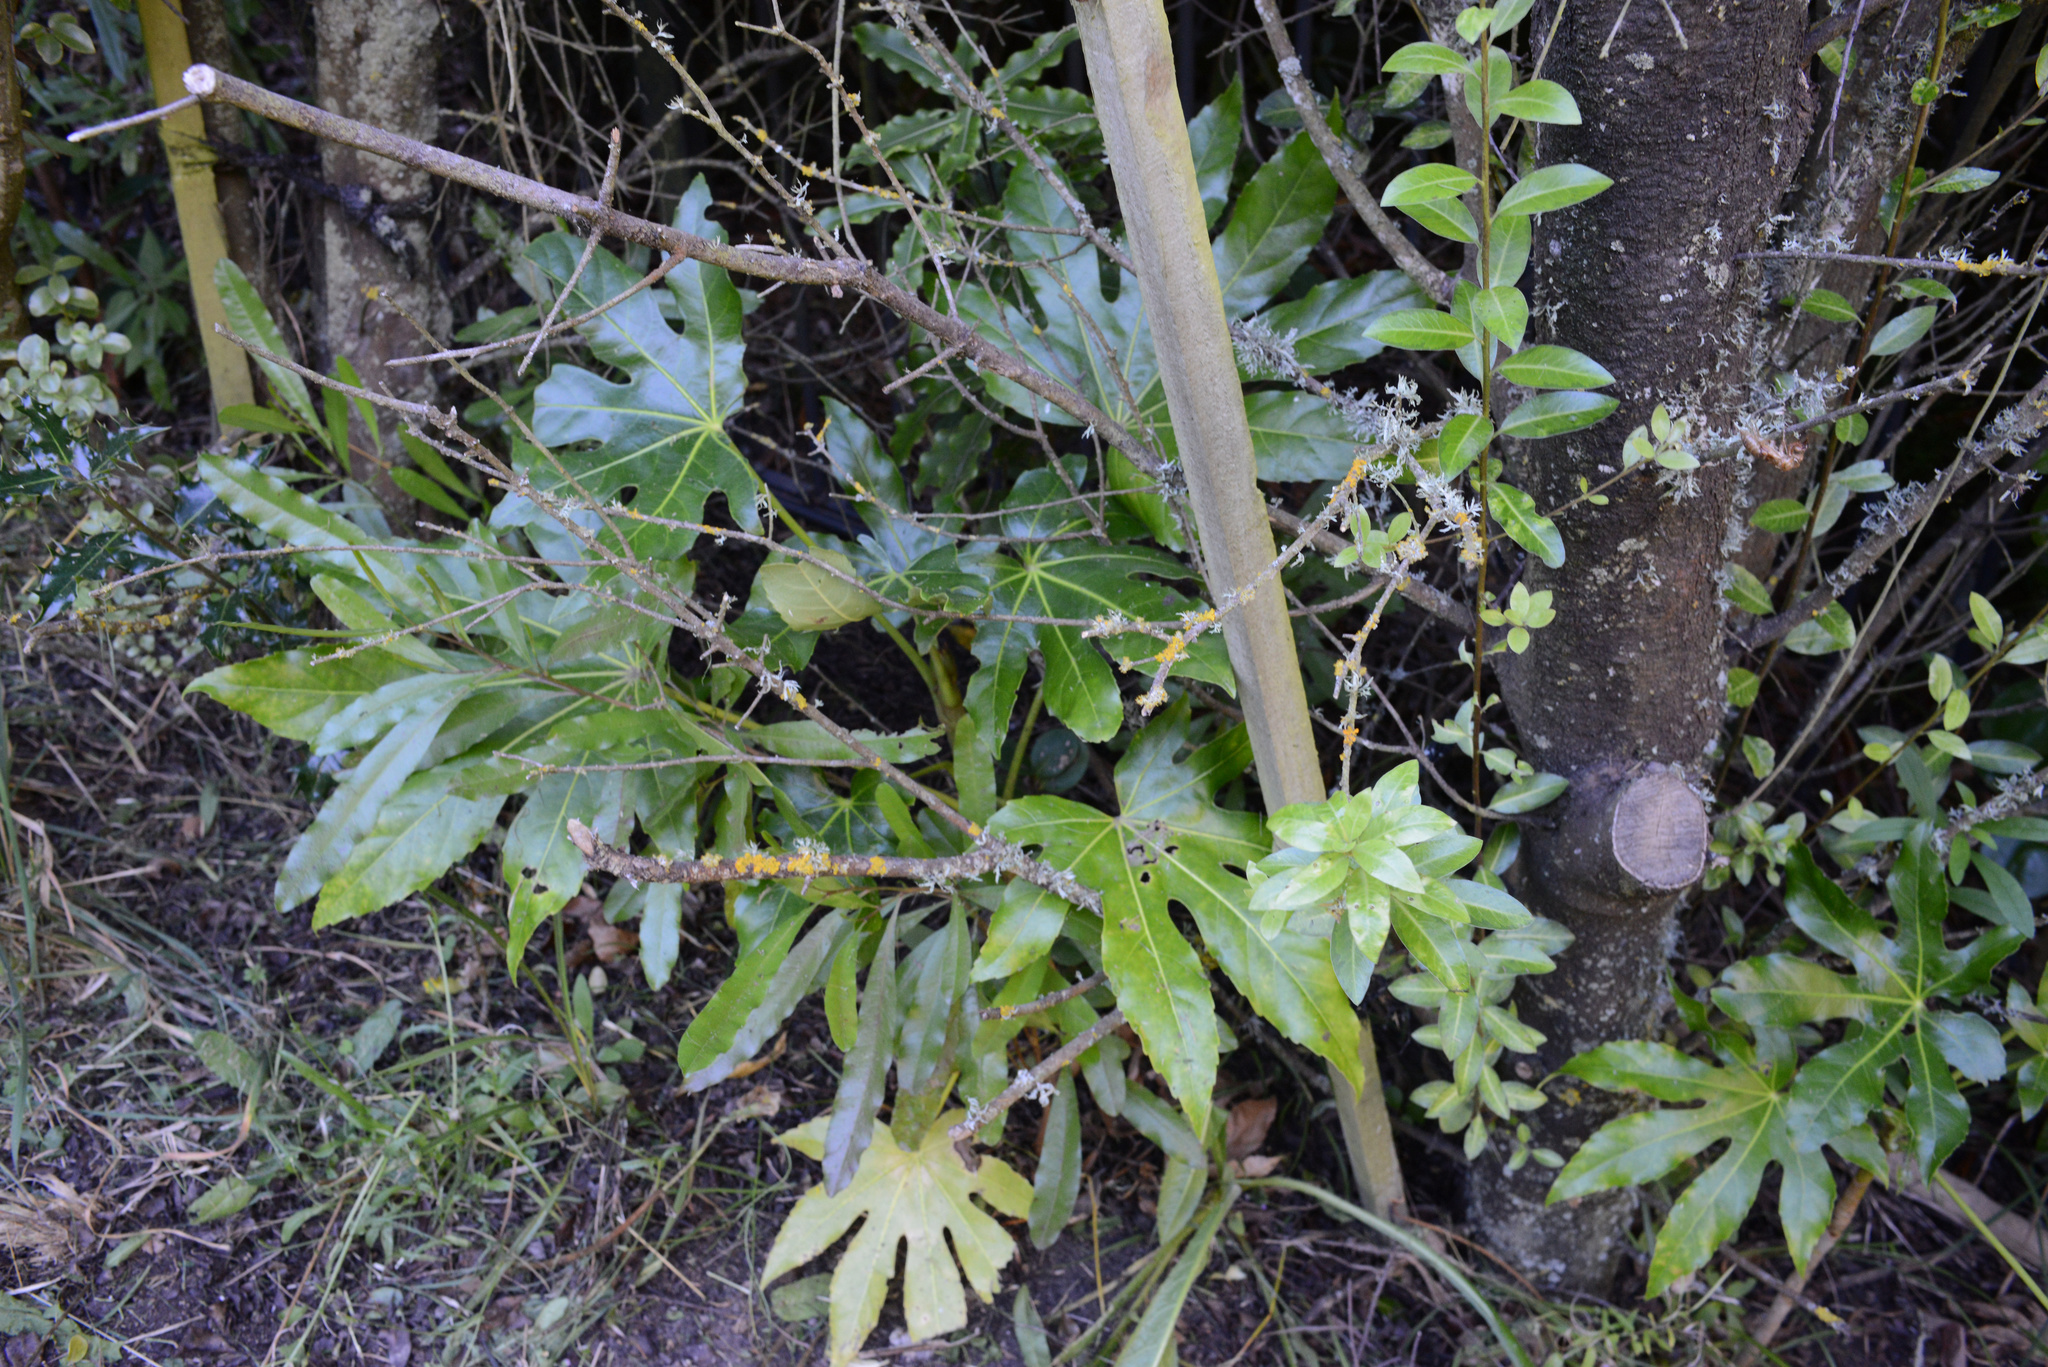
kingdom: Plantae
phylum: Tracheophyta
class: Magnoliopsida
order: Apiales
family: Araliaceae
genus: Fatsia
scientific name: Fatsia japonica
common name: Fatsia
